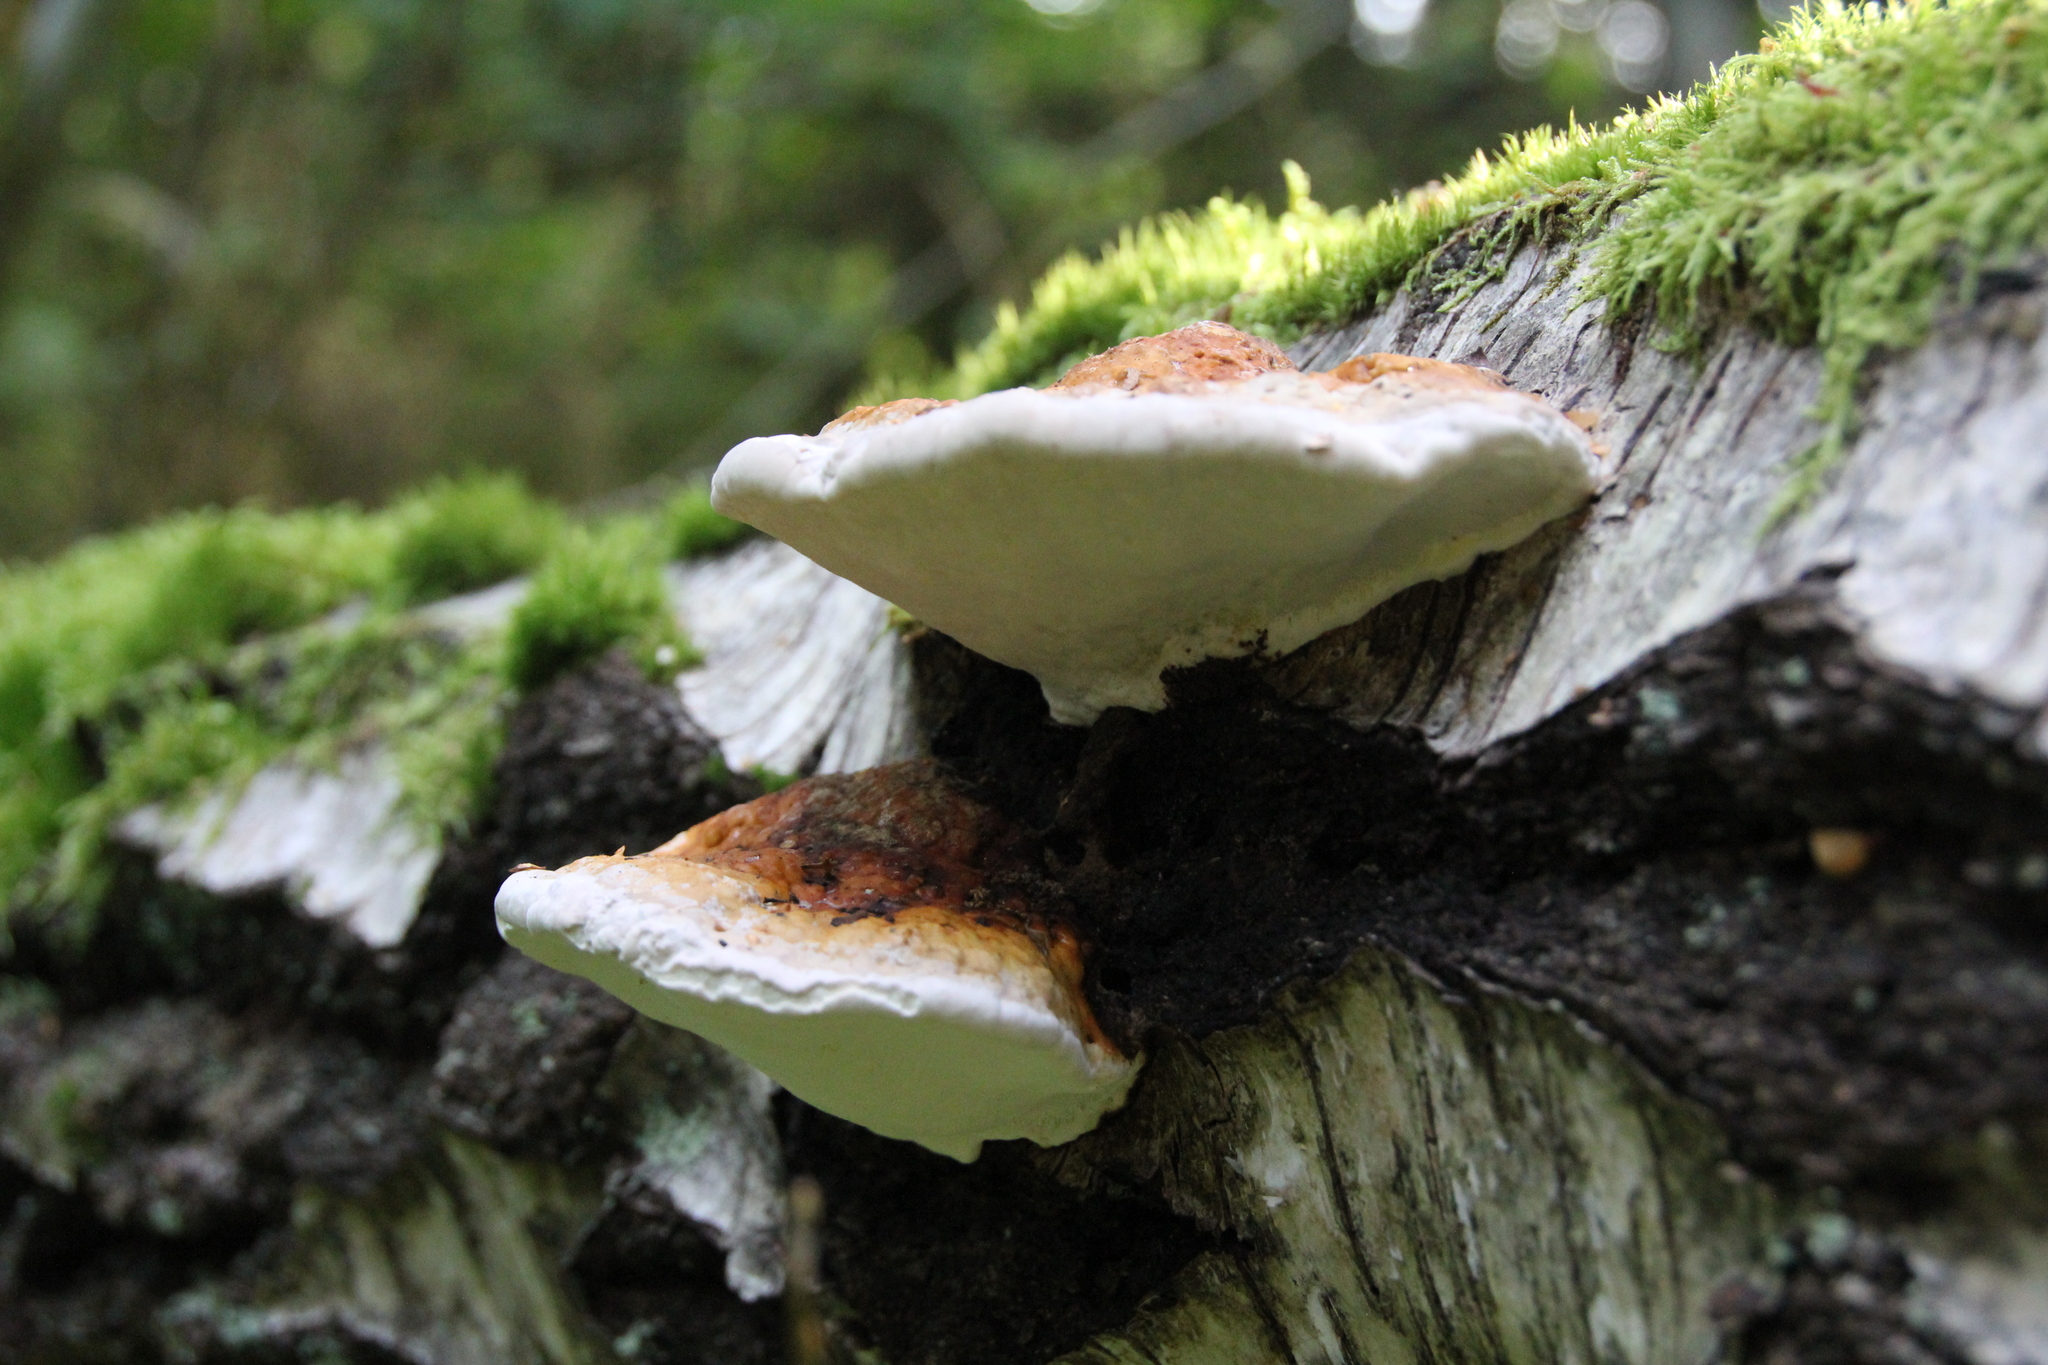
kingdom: Fungi
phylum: Basidiomycota
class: Agaricomycetes
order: Polyporales
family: Fomitopsidaceae
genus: Fomitopsis
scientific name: Fomitopsis pinicola
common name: Red-belted bracket
